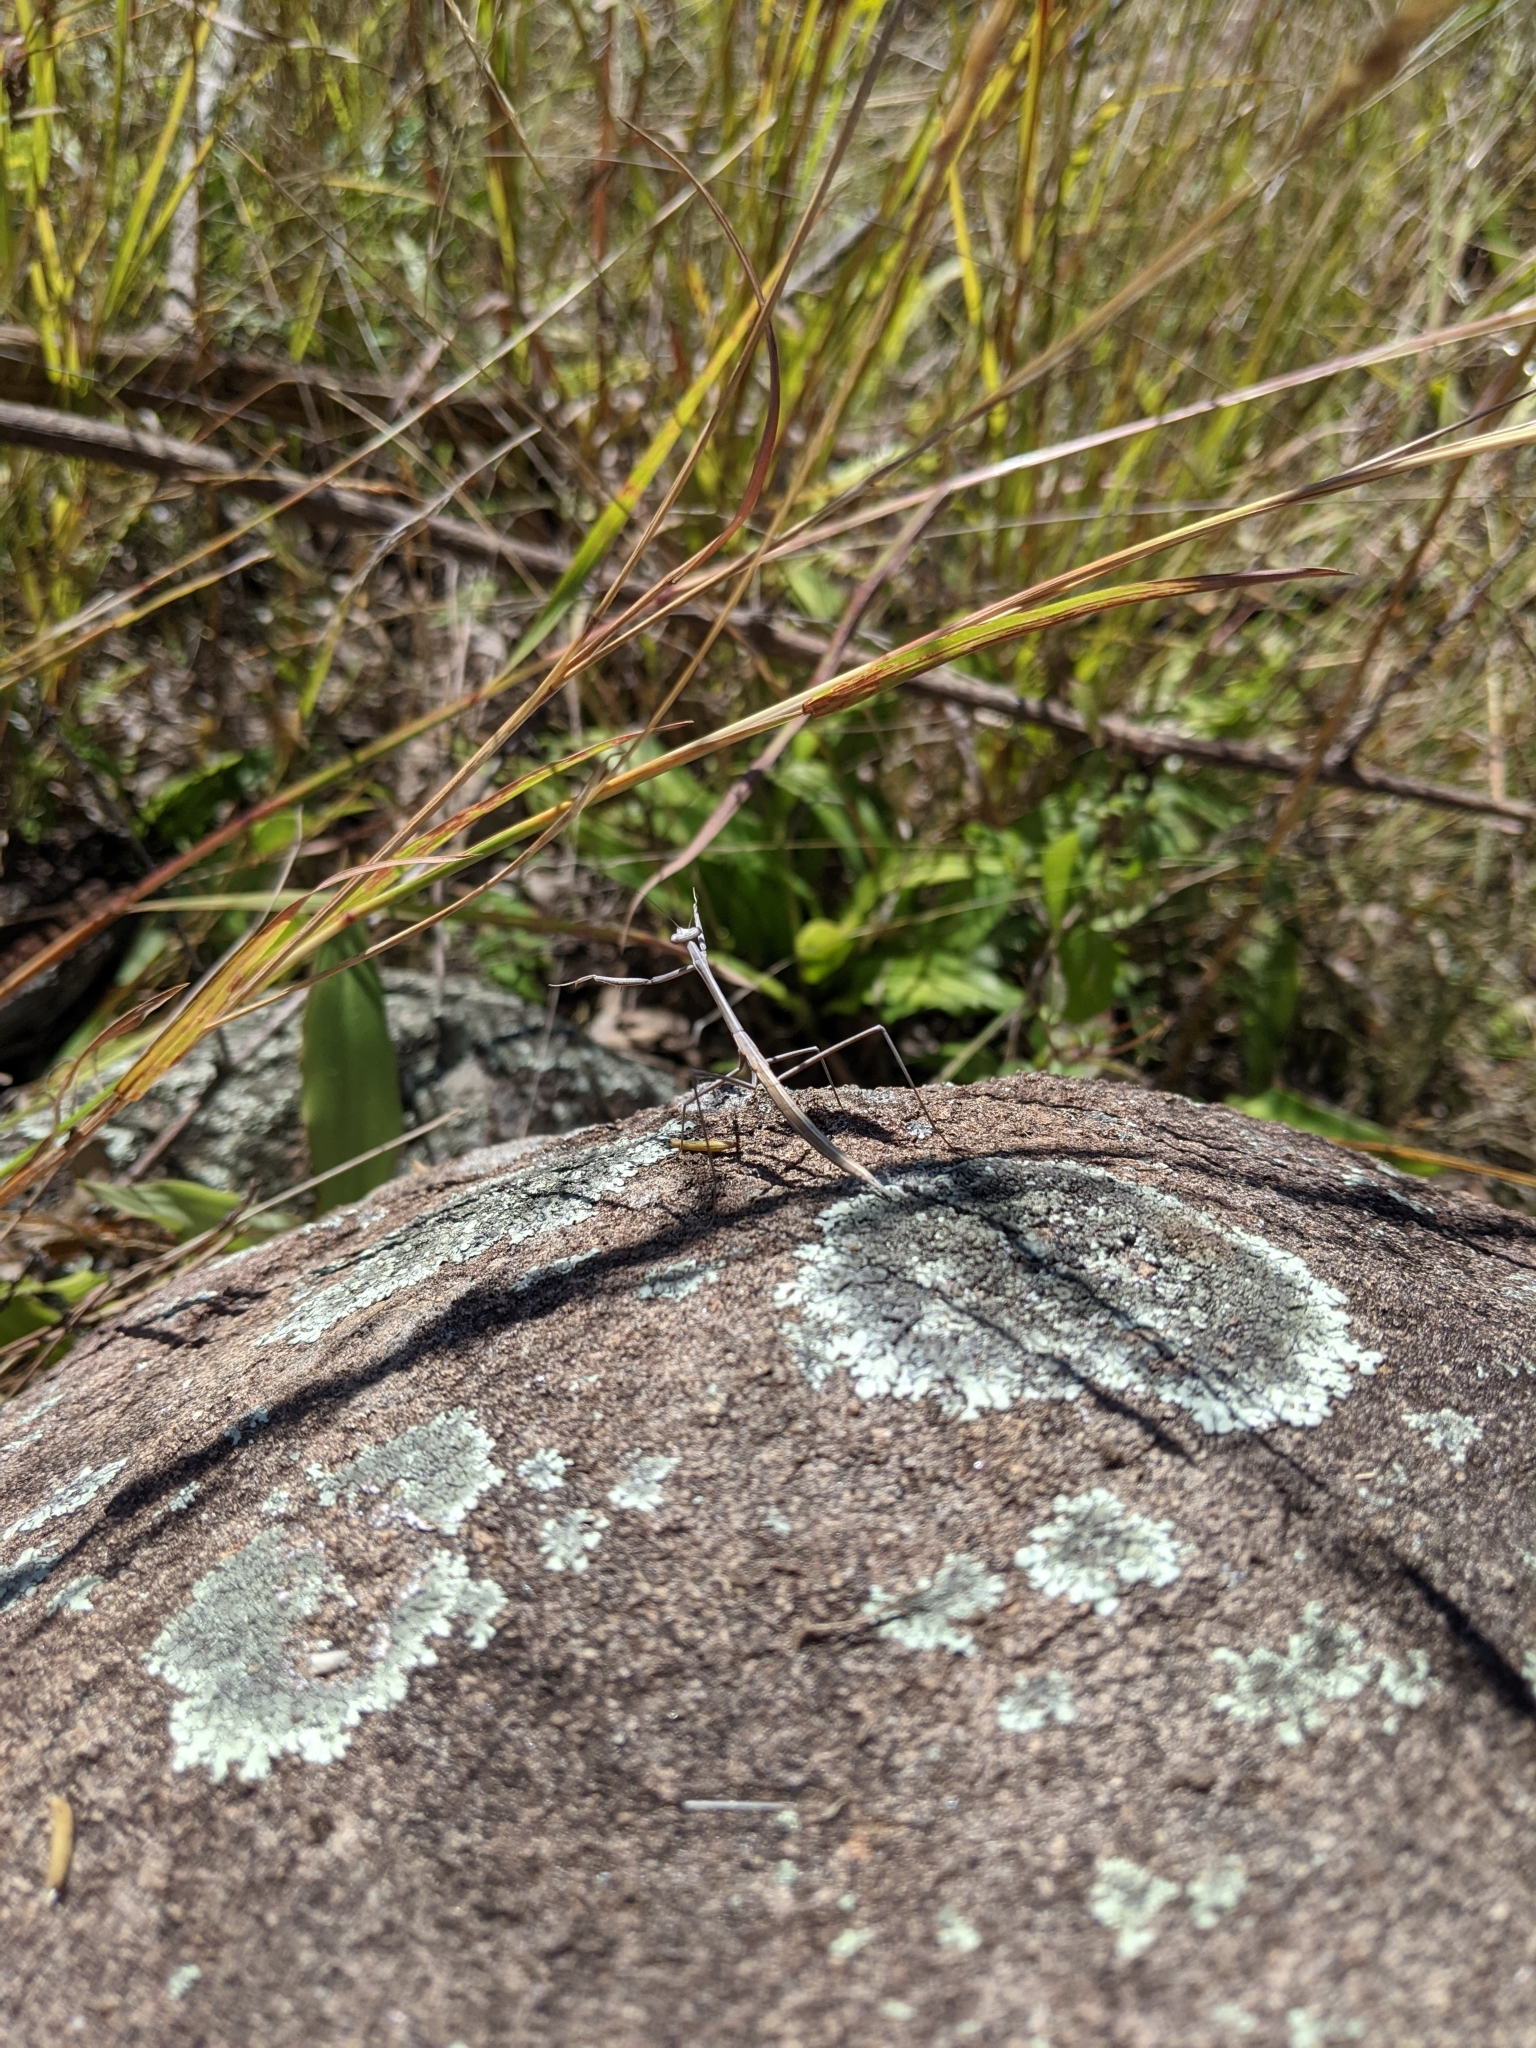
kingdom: Animalia
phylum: Arthropoda
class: Insecta
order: Mantodea
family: Mantidae
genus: Archimantis
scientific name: Archimantis brunneriana
